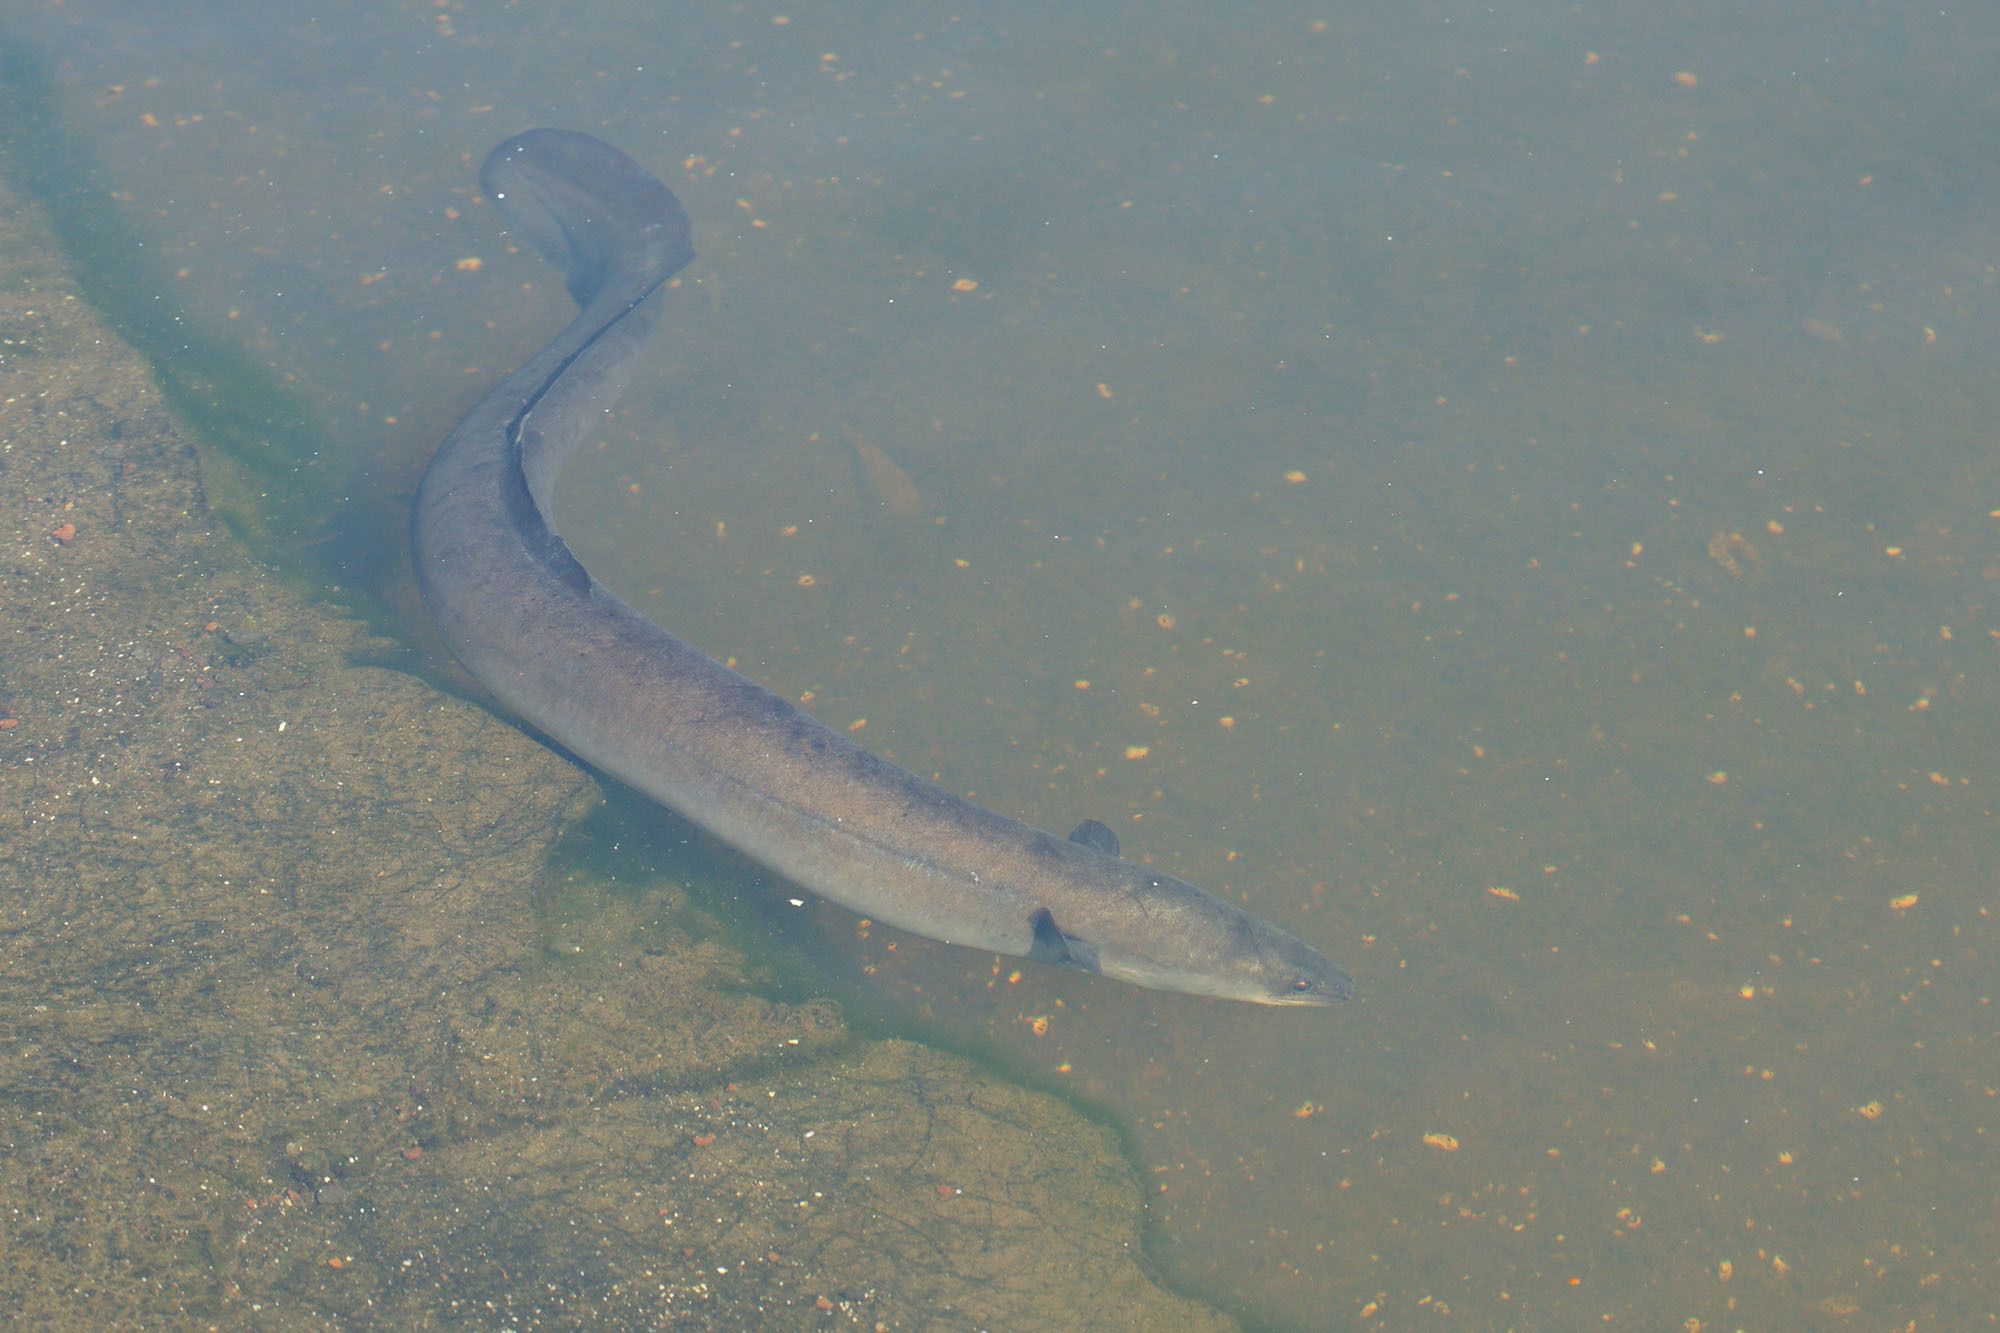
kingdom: Animalia
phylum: Chordata
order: Anguilliformes
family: Anguillidae
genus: Anguilla
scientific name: Anguilla australis
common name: Shortfin eel
